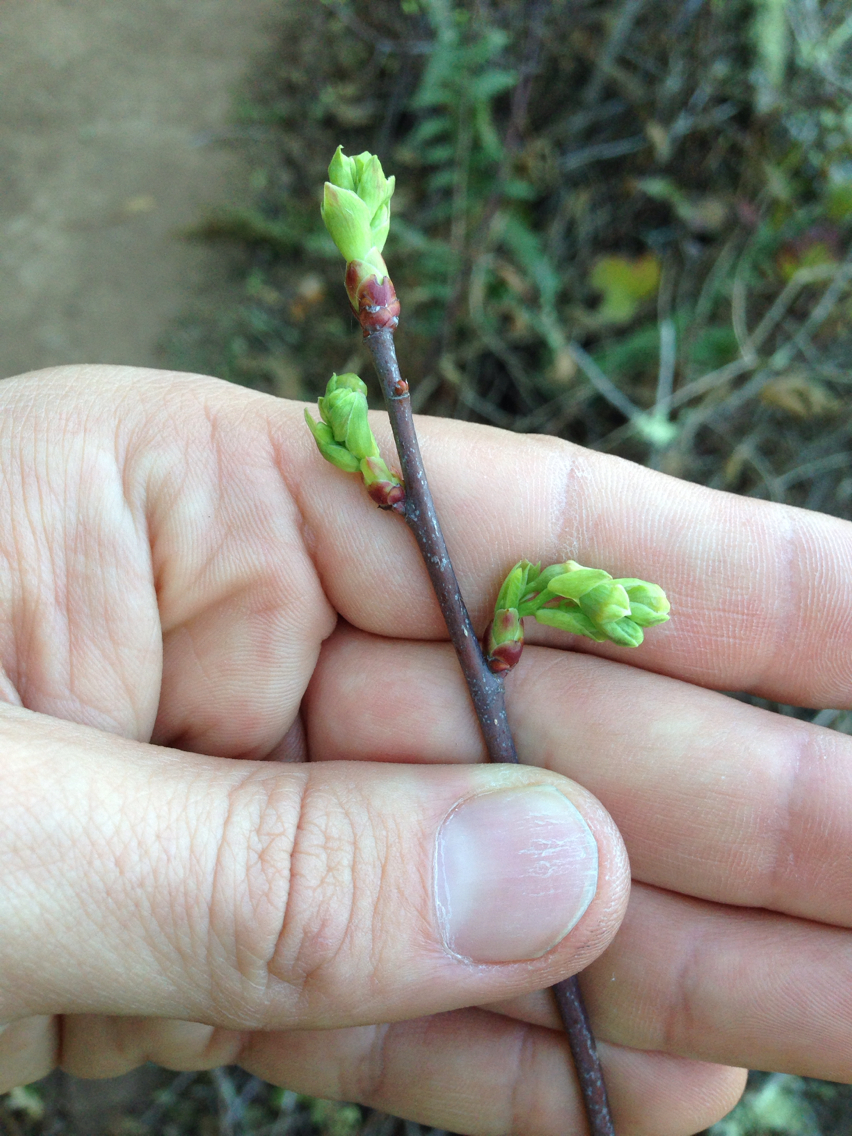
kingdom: Plantae
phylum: Tracheophyta
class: Magnoliopsida
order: Rosales
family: Rosaceae
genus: Oemleria
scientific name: Oemleria cerasiformis
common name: Osoberry
